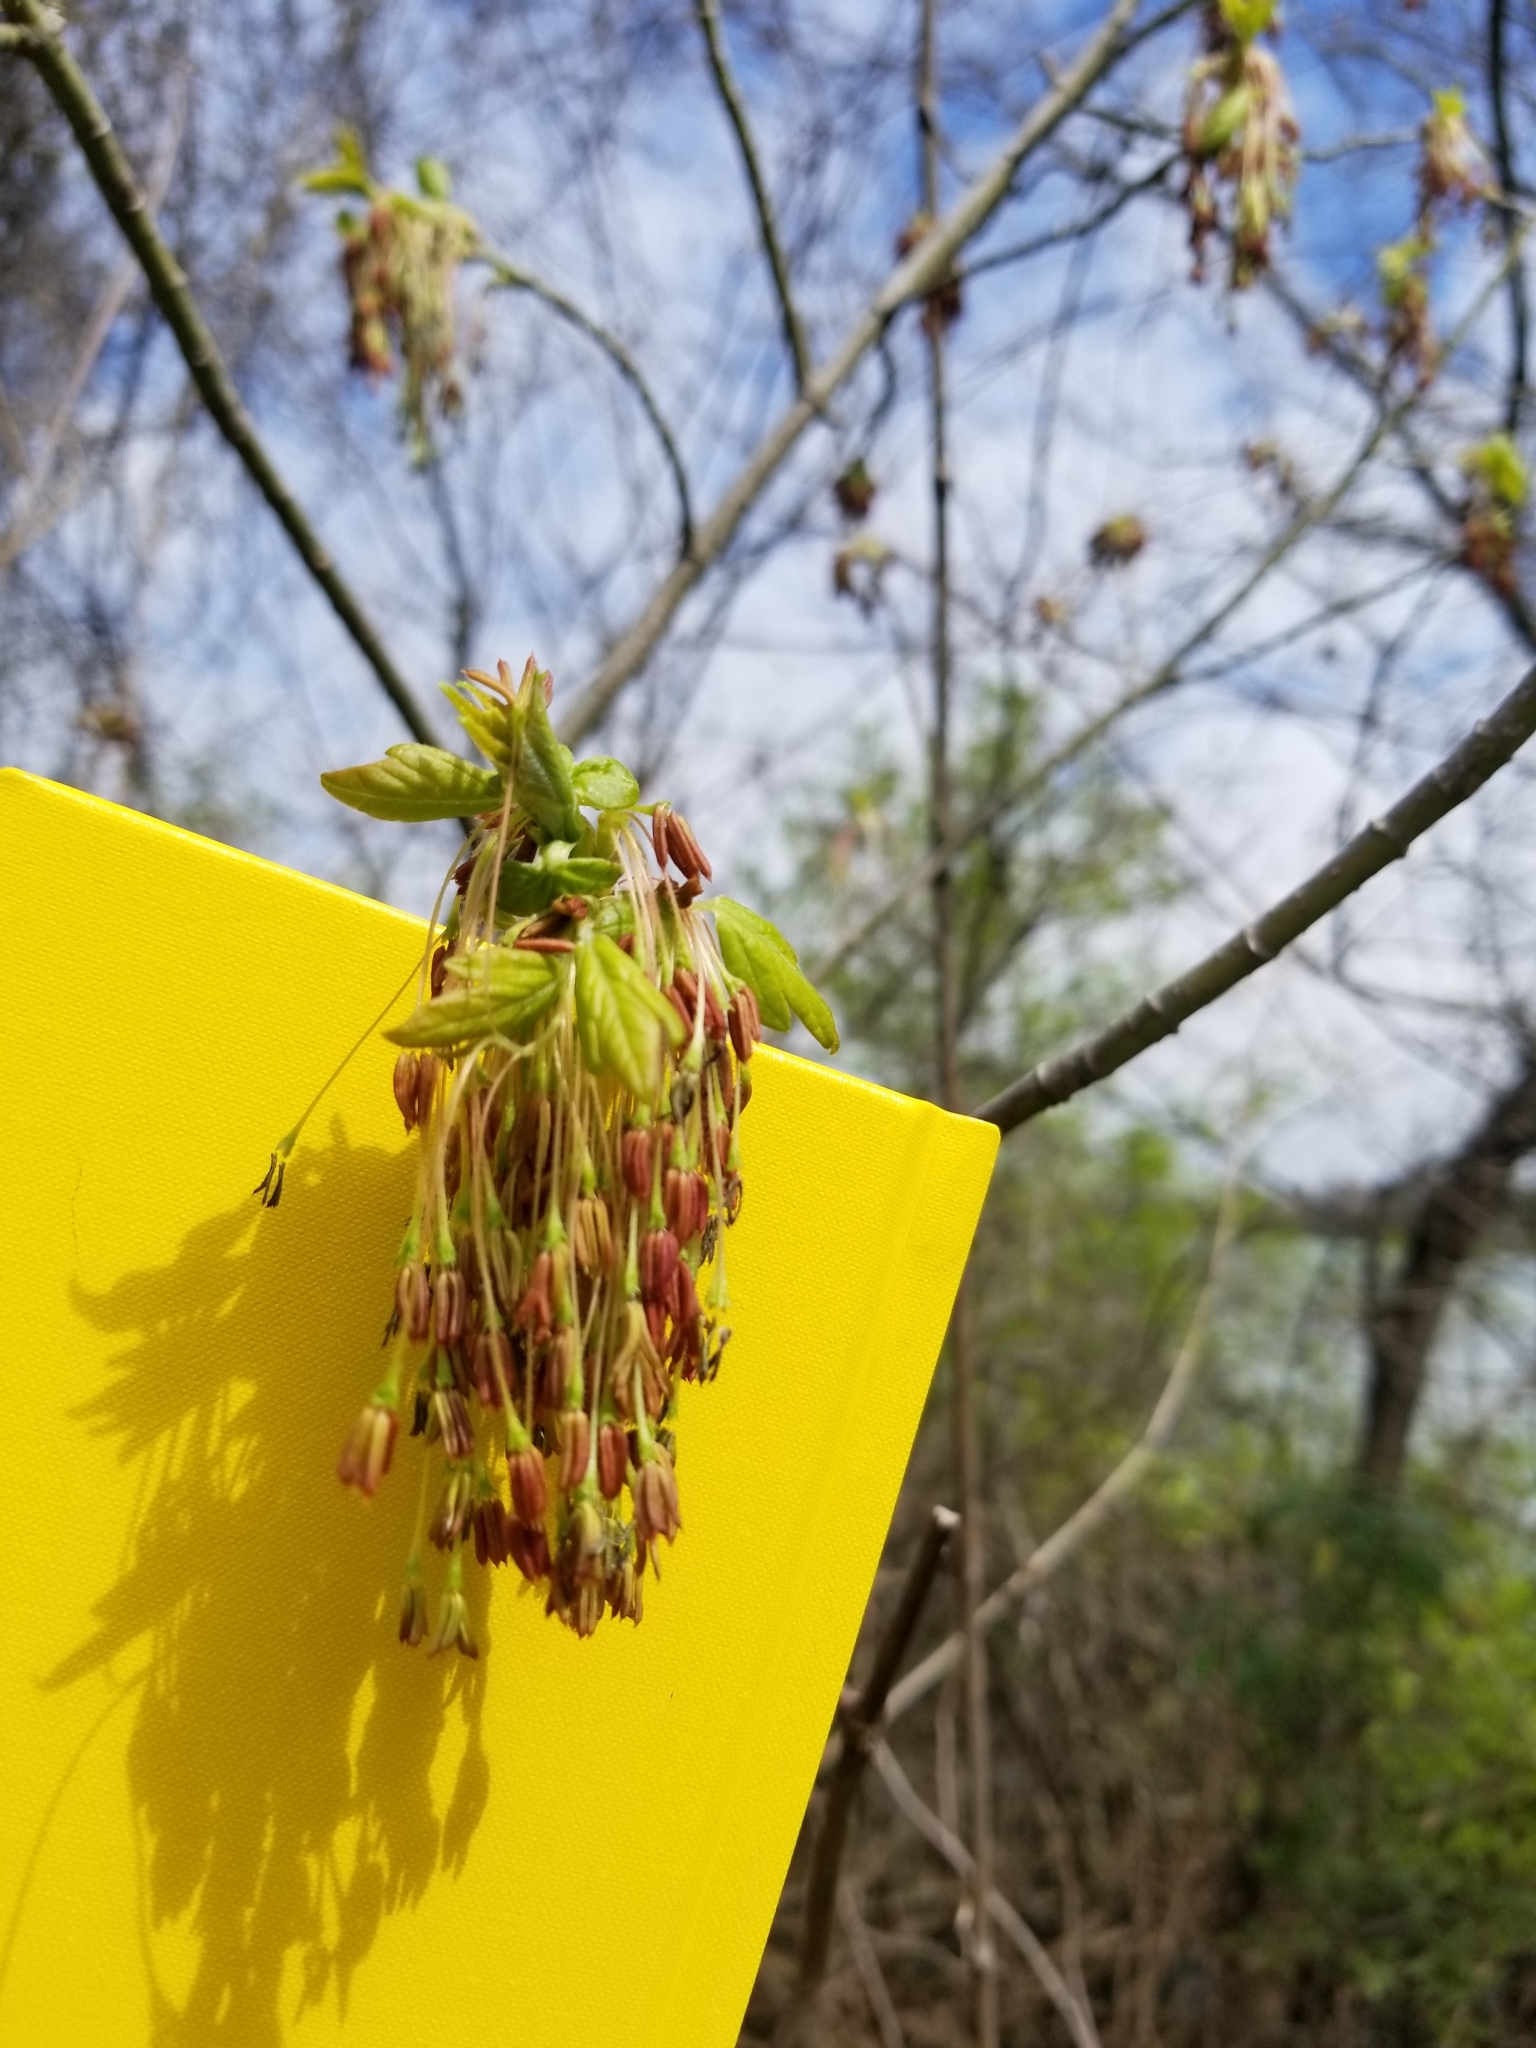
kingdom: Plantae
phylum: Tracheophyta
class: Magnoliopsida
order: Sapindales
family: Sapindaceae
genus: Acer
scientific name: Acer negundo
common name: Ashleaf maple
